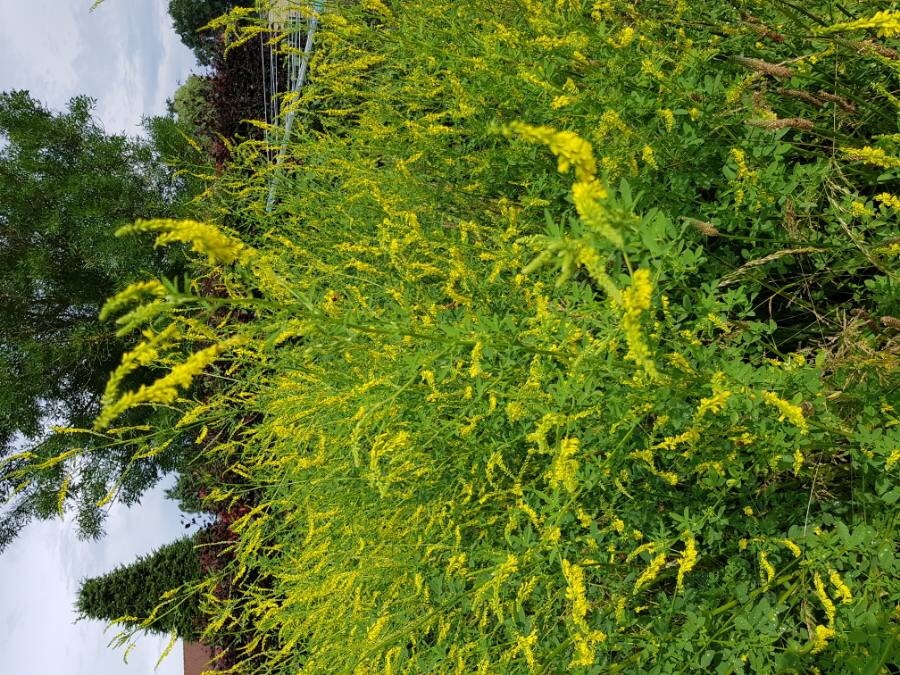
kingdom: Plantae
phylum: Tracheophyta
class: Magnoliopsida
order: Fabales
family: Fabaceae
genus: Melilotus
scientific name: Melilotus officinalis
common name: Sweetclover
